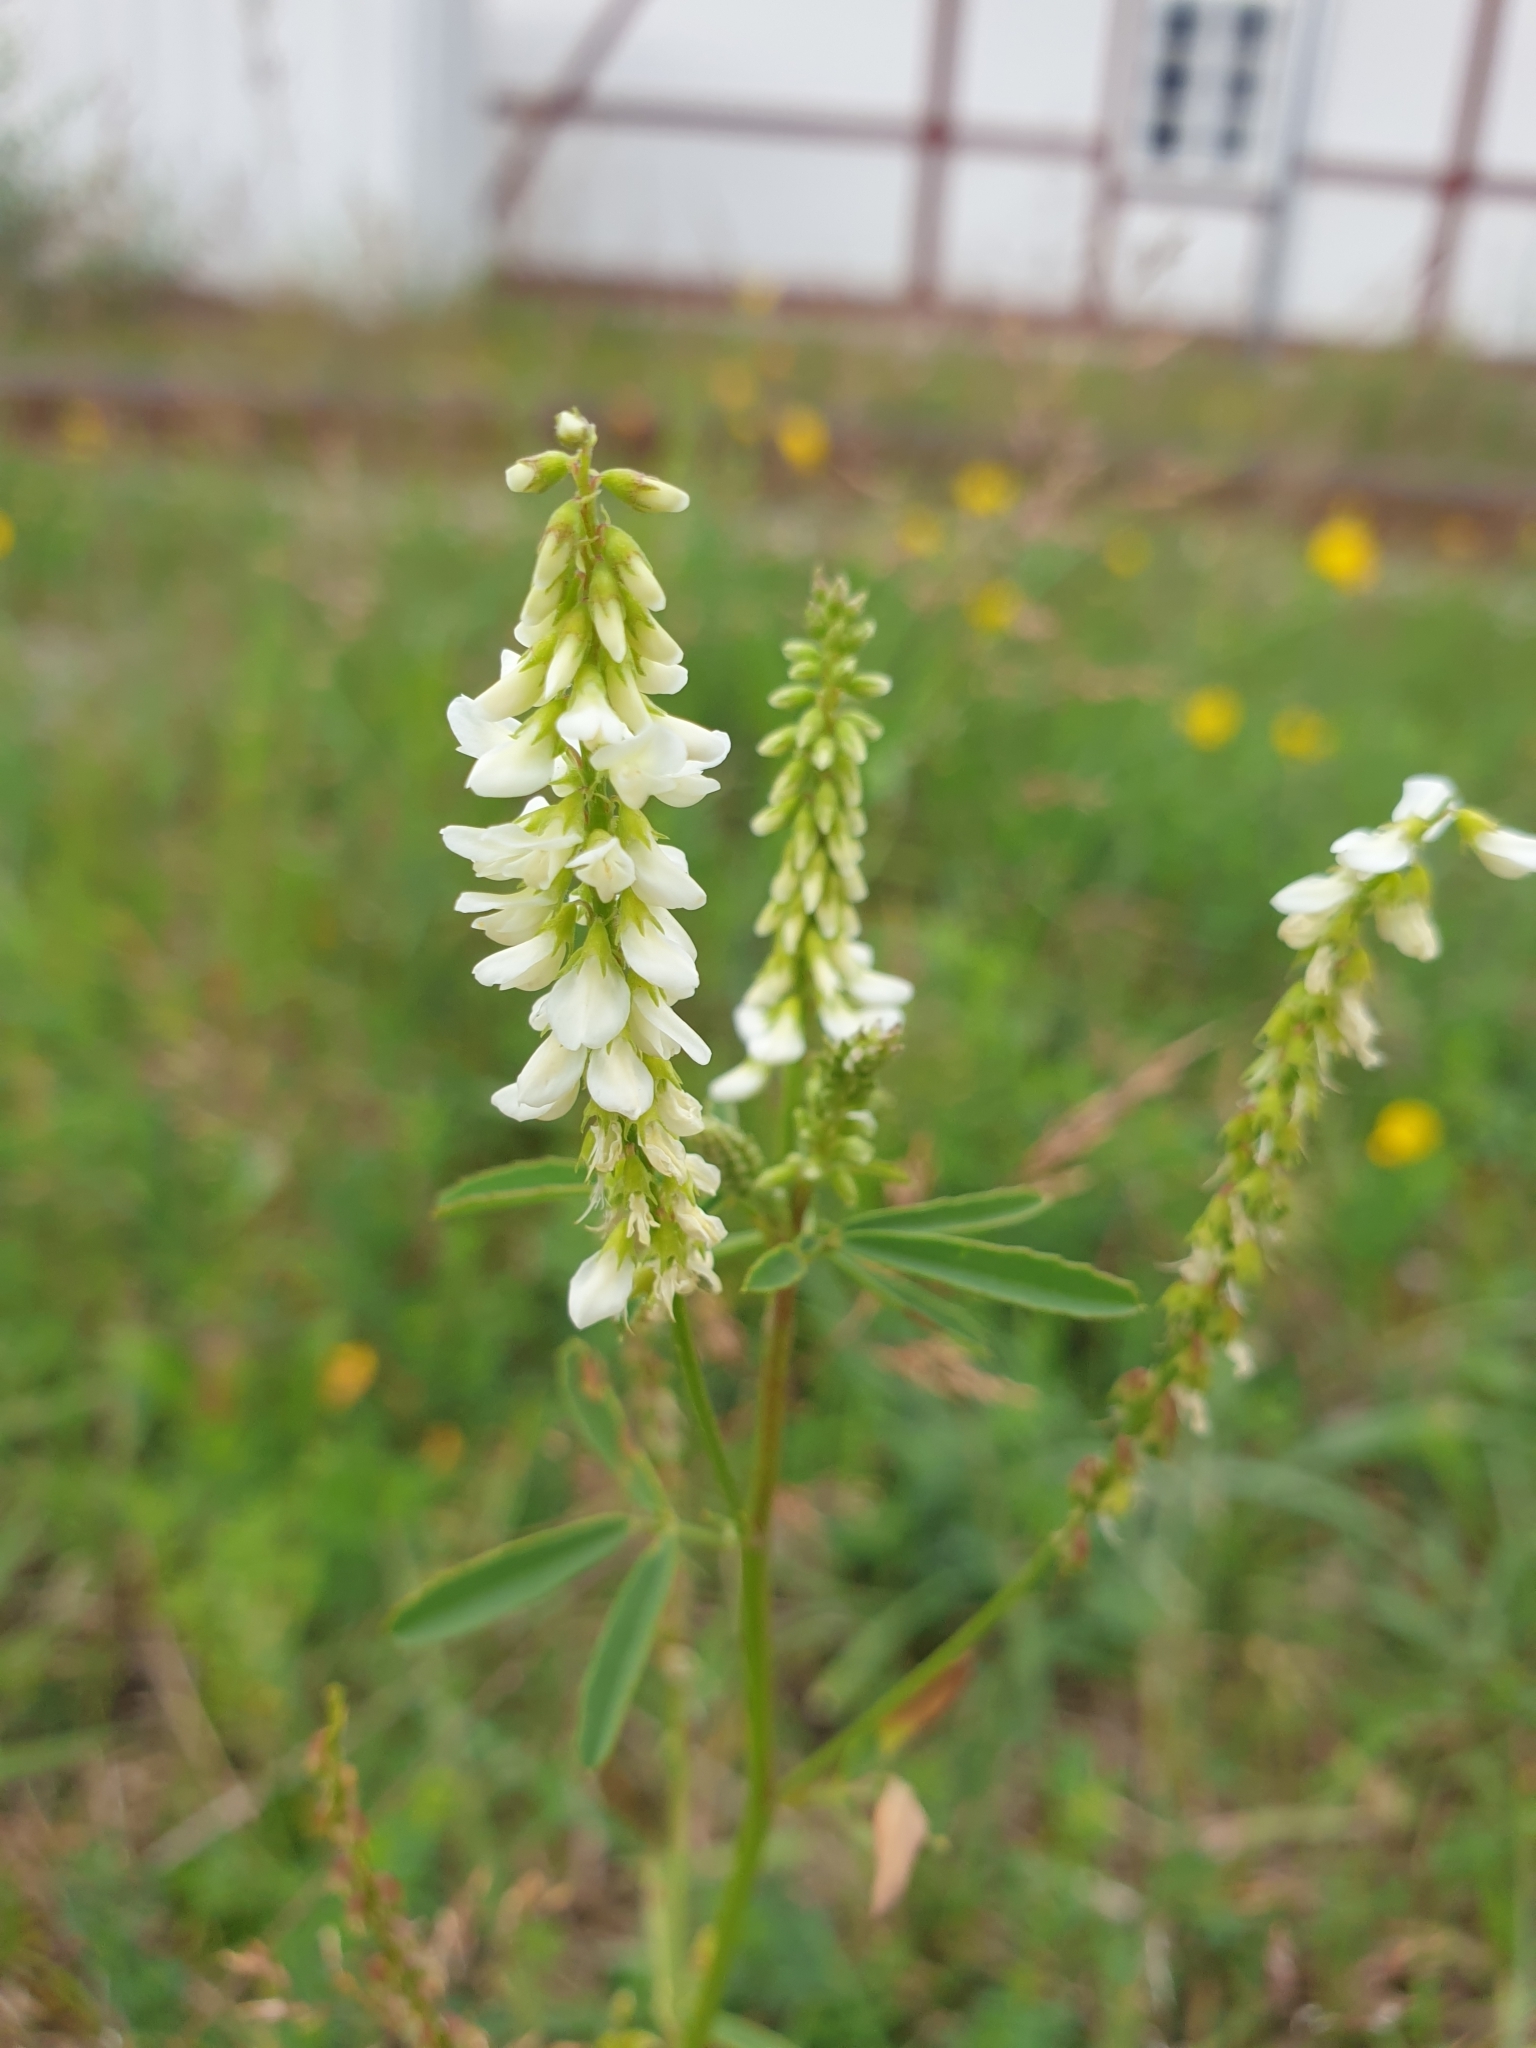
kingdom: Plantae
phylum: Tracheophyta
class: Magnoliopsida
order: Fabales
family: Fabaceae
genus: Melilotus
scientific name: Melilotus albus
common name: White melilot
